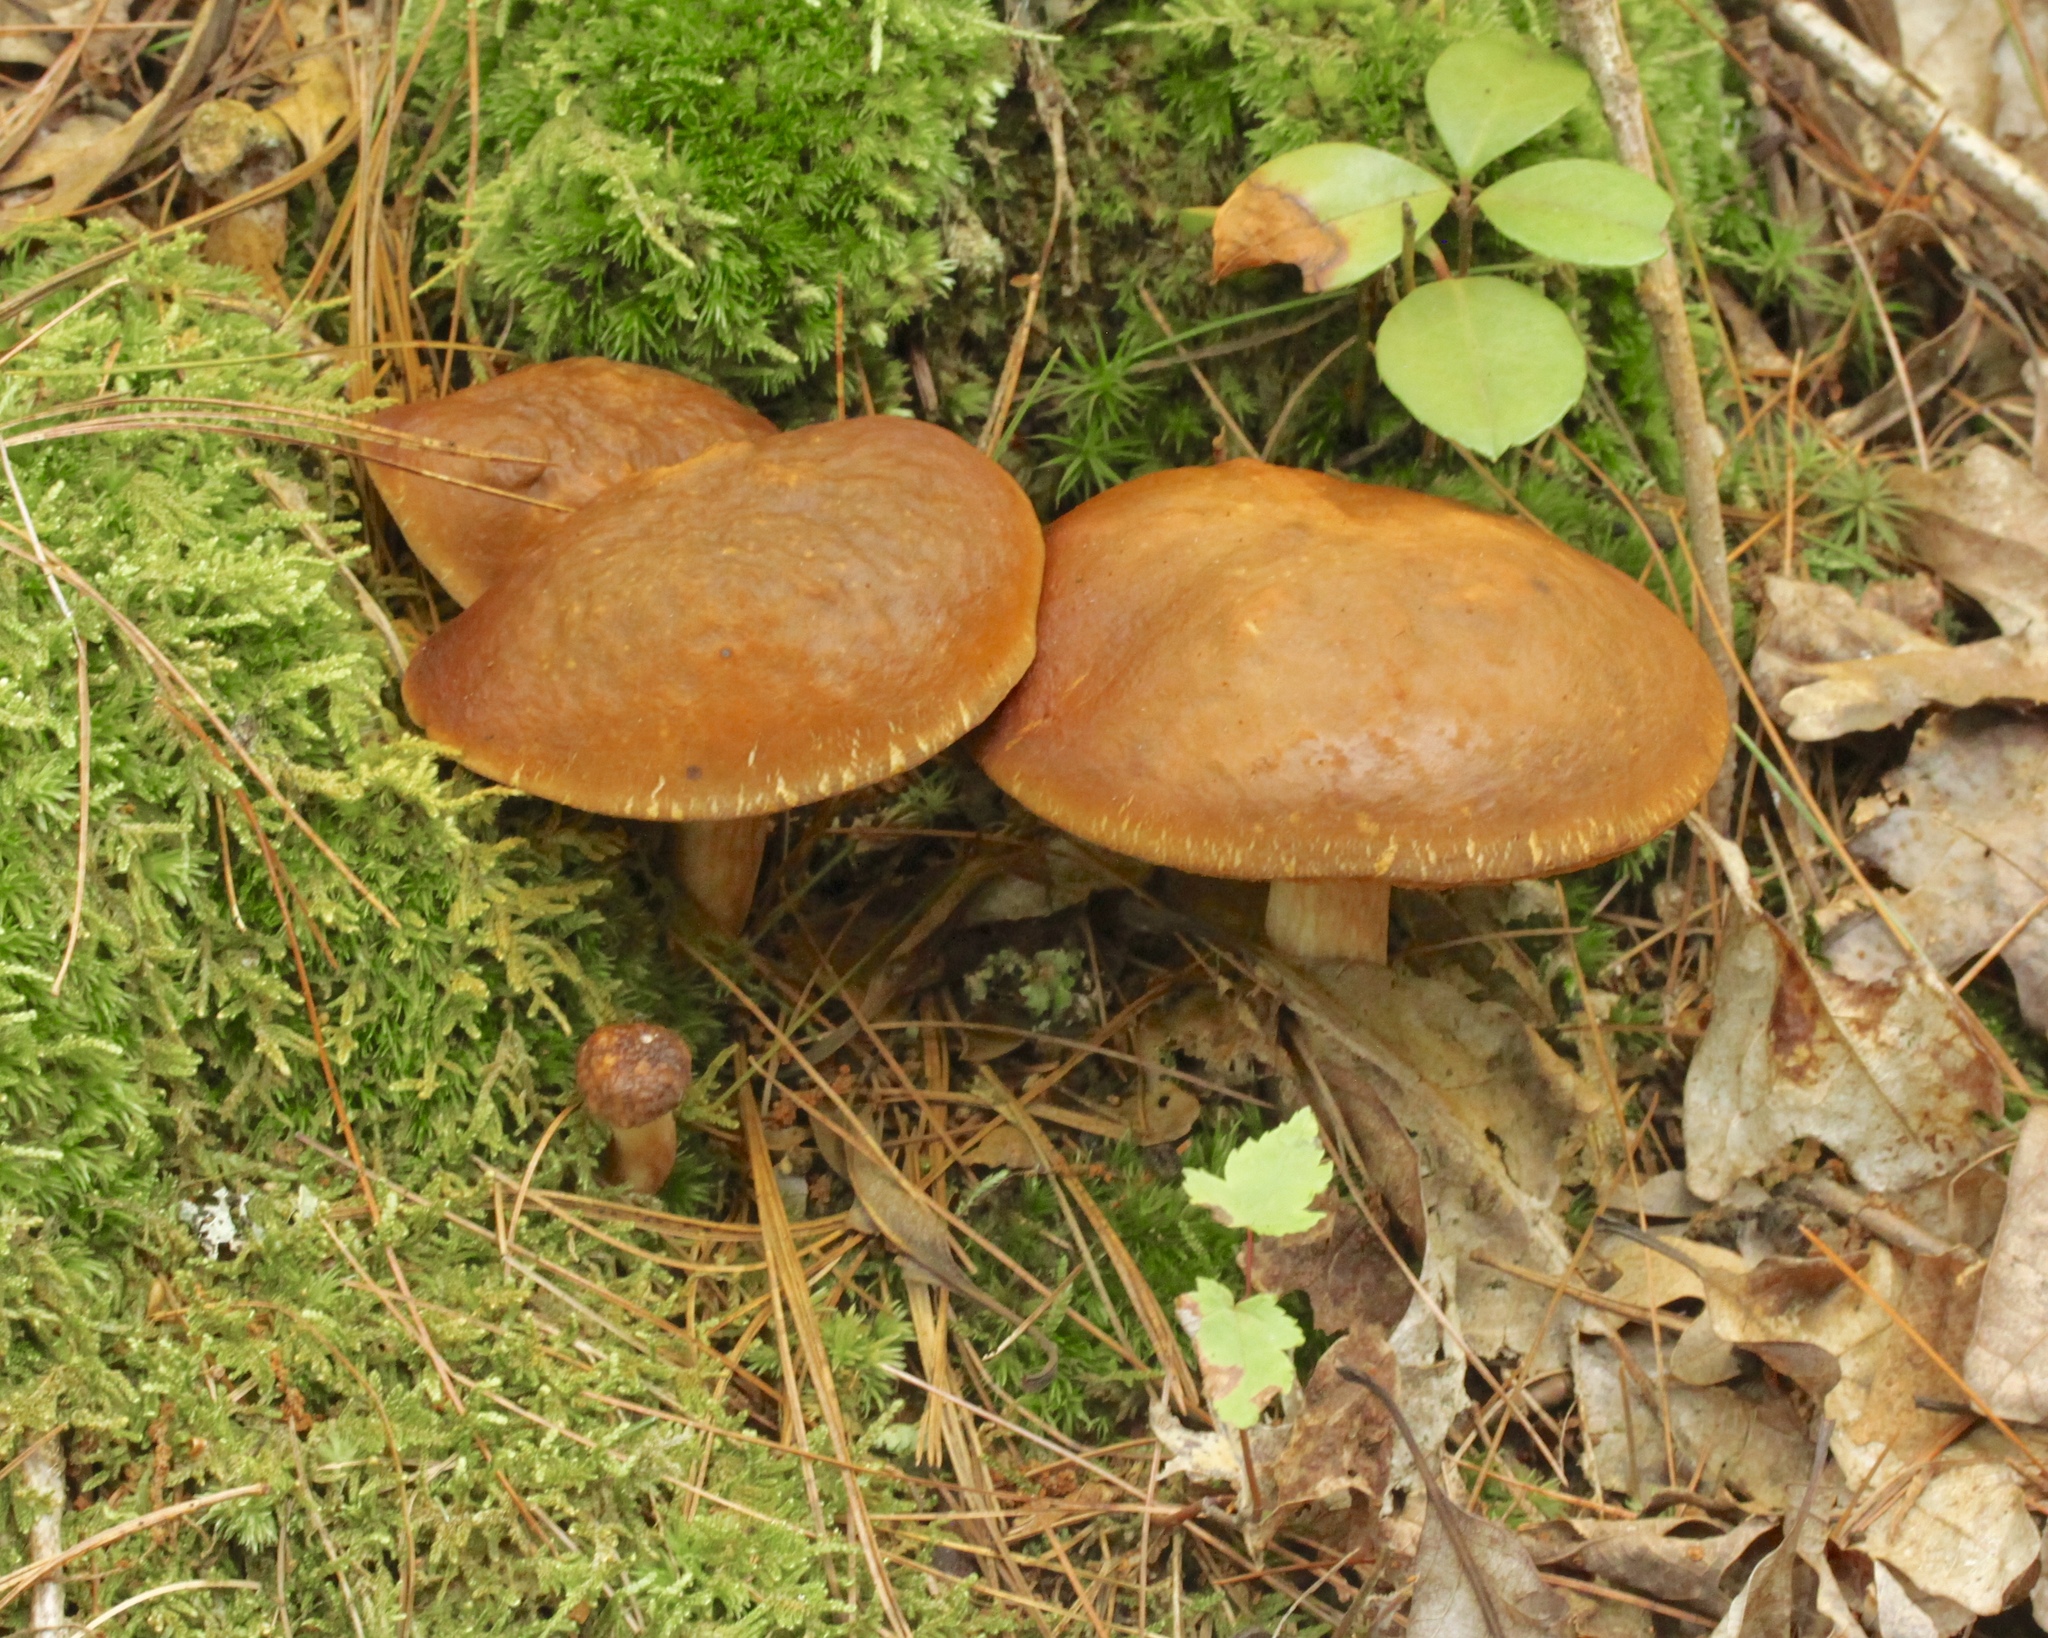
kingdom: Fungi
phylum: Basidiomycota
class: Agaricomycetes
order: Boletales
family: Boletaceae
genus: Xanthoconium
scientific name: Xanthoconium affine
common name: Spotted bolete
